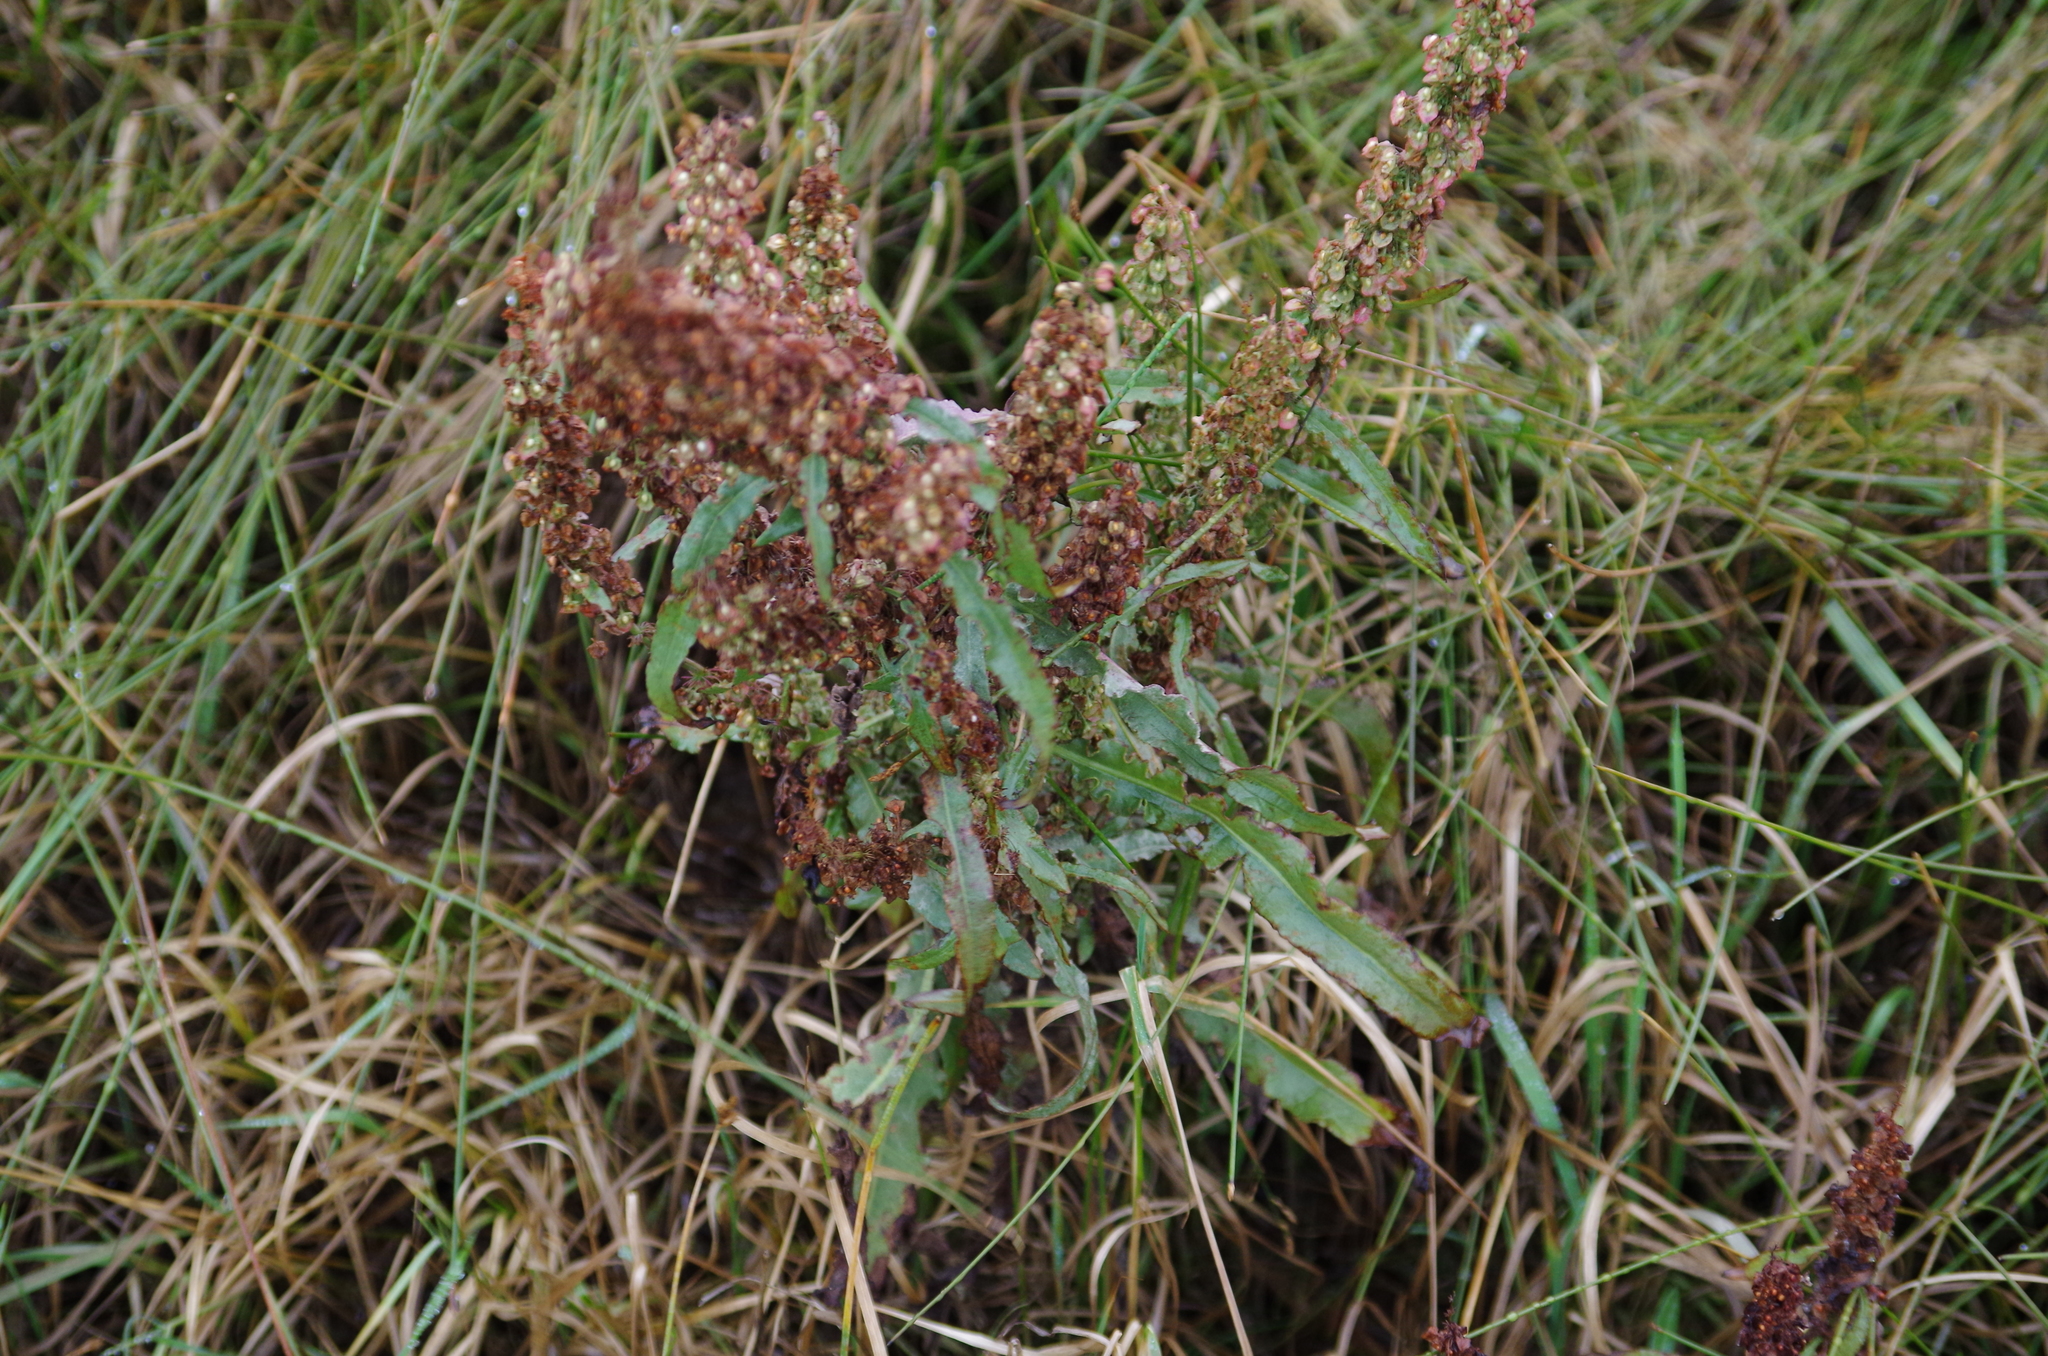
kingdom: Plantae
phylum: Tracheophyta
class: Magnoliopsida
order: Caryophyllales
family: Polygonaceae
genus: Rumex
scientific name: Rumex crispus
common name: Curled dock
